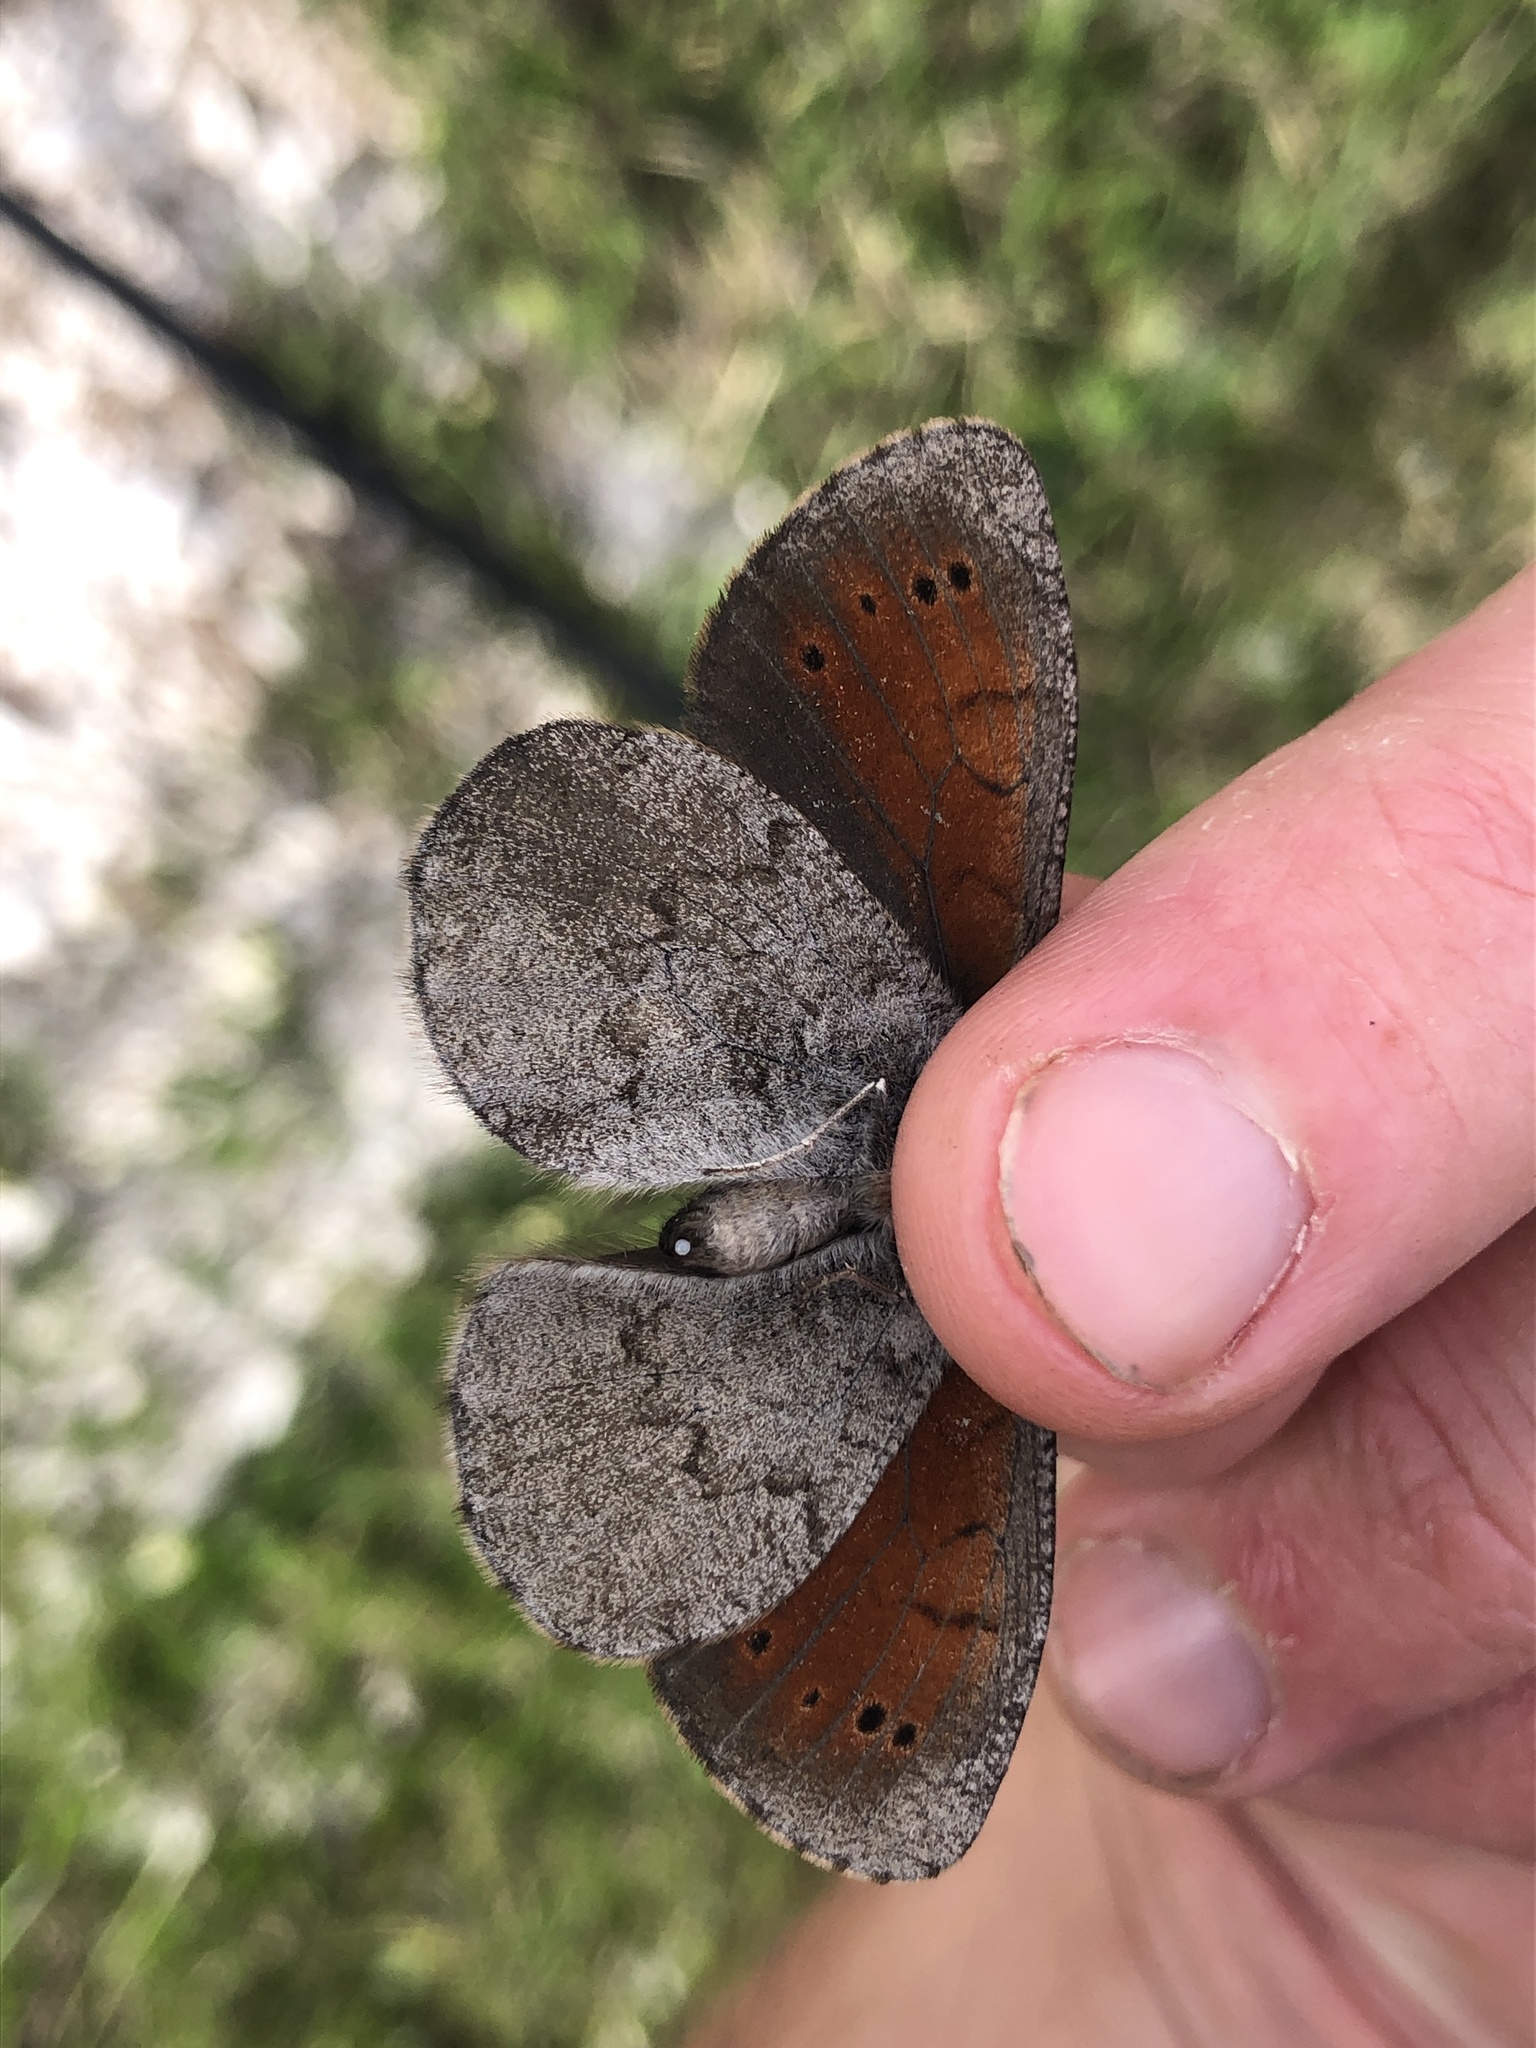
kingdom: Animalia
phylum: Arthropoda
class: Insecta
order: Lepidoptera
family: Nymphalidae
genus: Erebia
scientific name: Erebia pandrose
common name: Dewy ringlet
